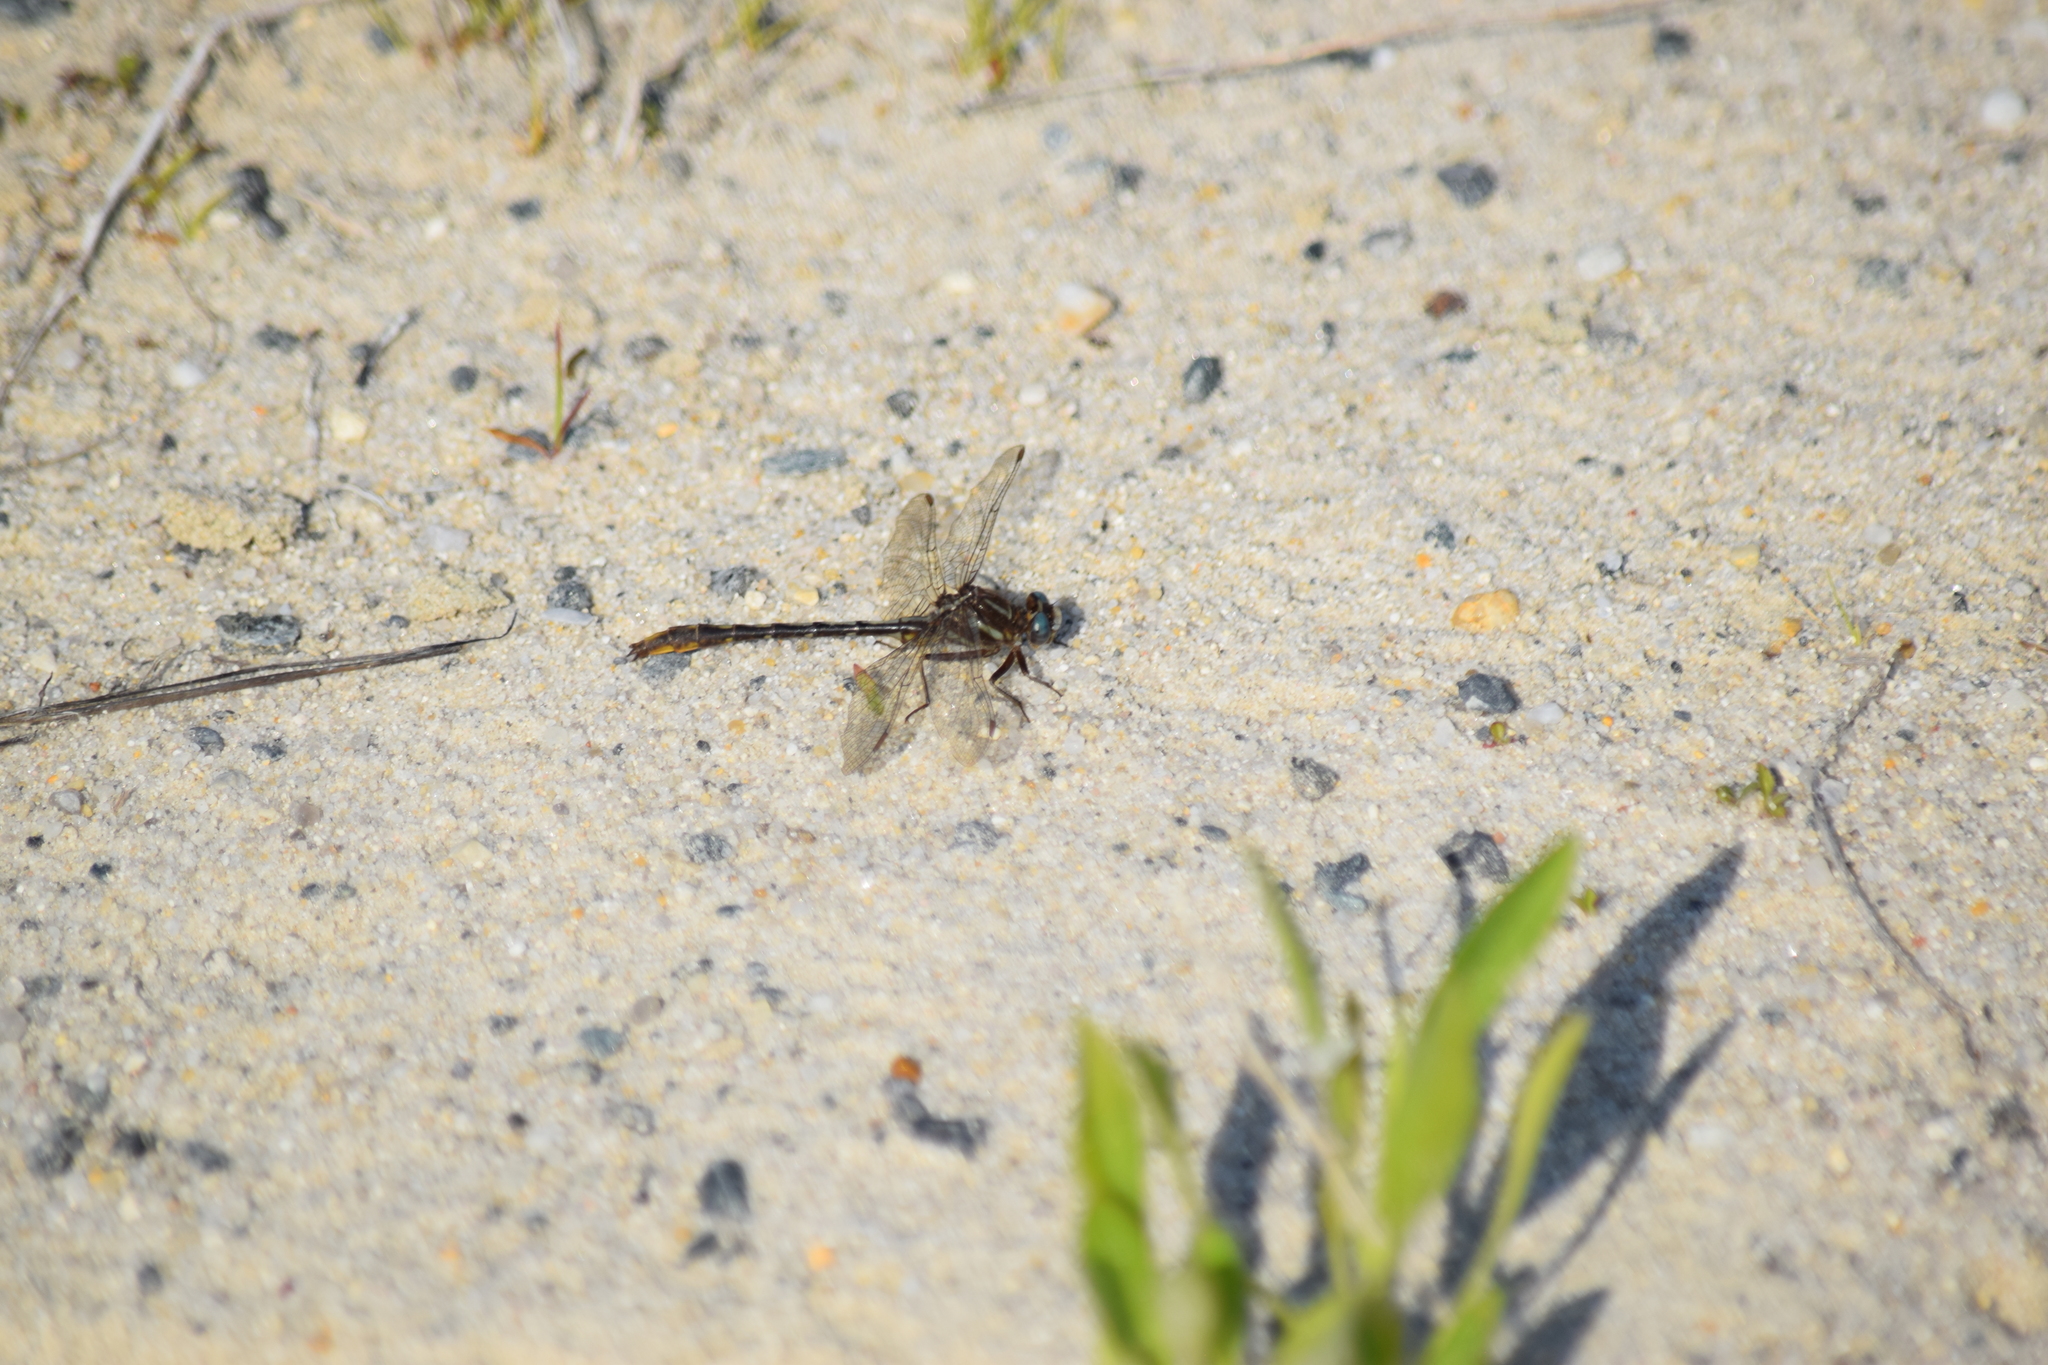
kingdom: Animalia
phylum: Arthropoda
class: Insecta
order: Odonata
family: Gomphidae
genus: Phanogomphus
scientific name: Phanogomphus exilis
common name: Lancet clubtail
